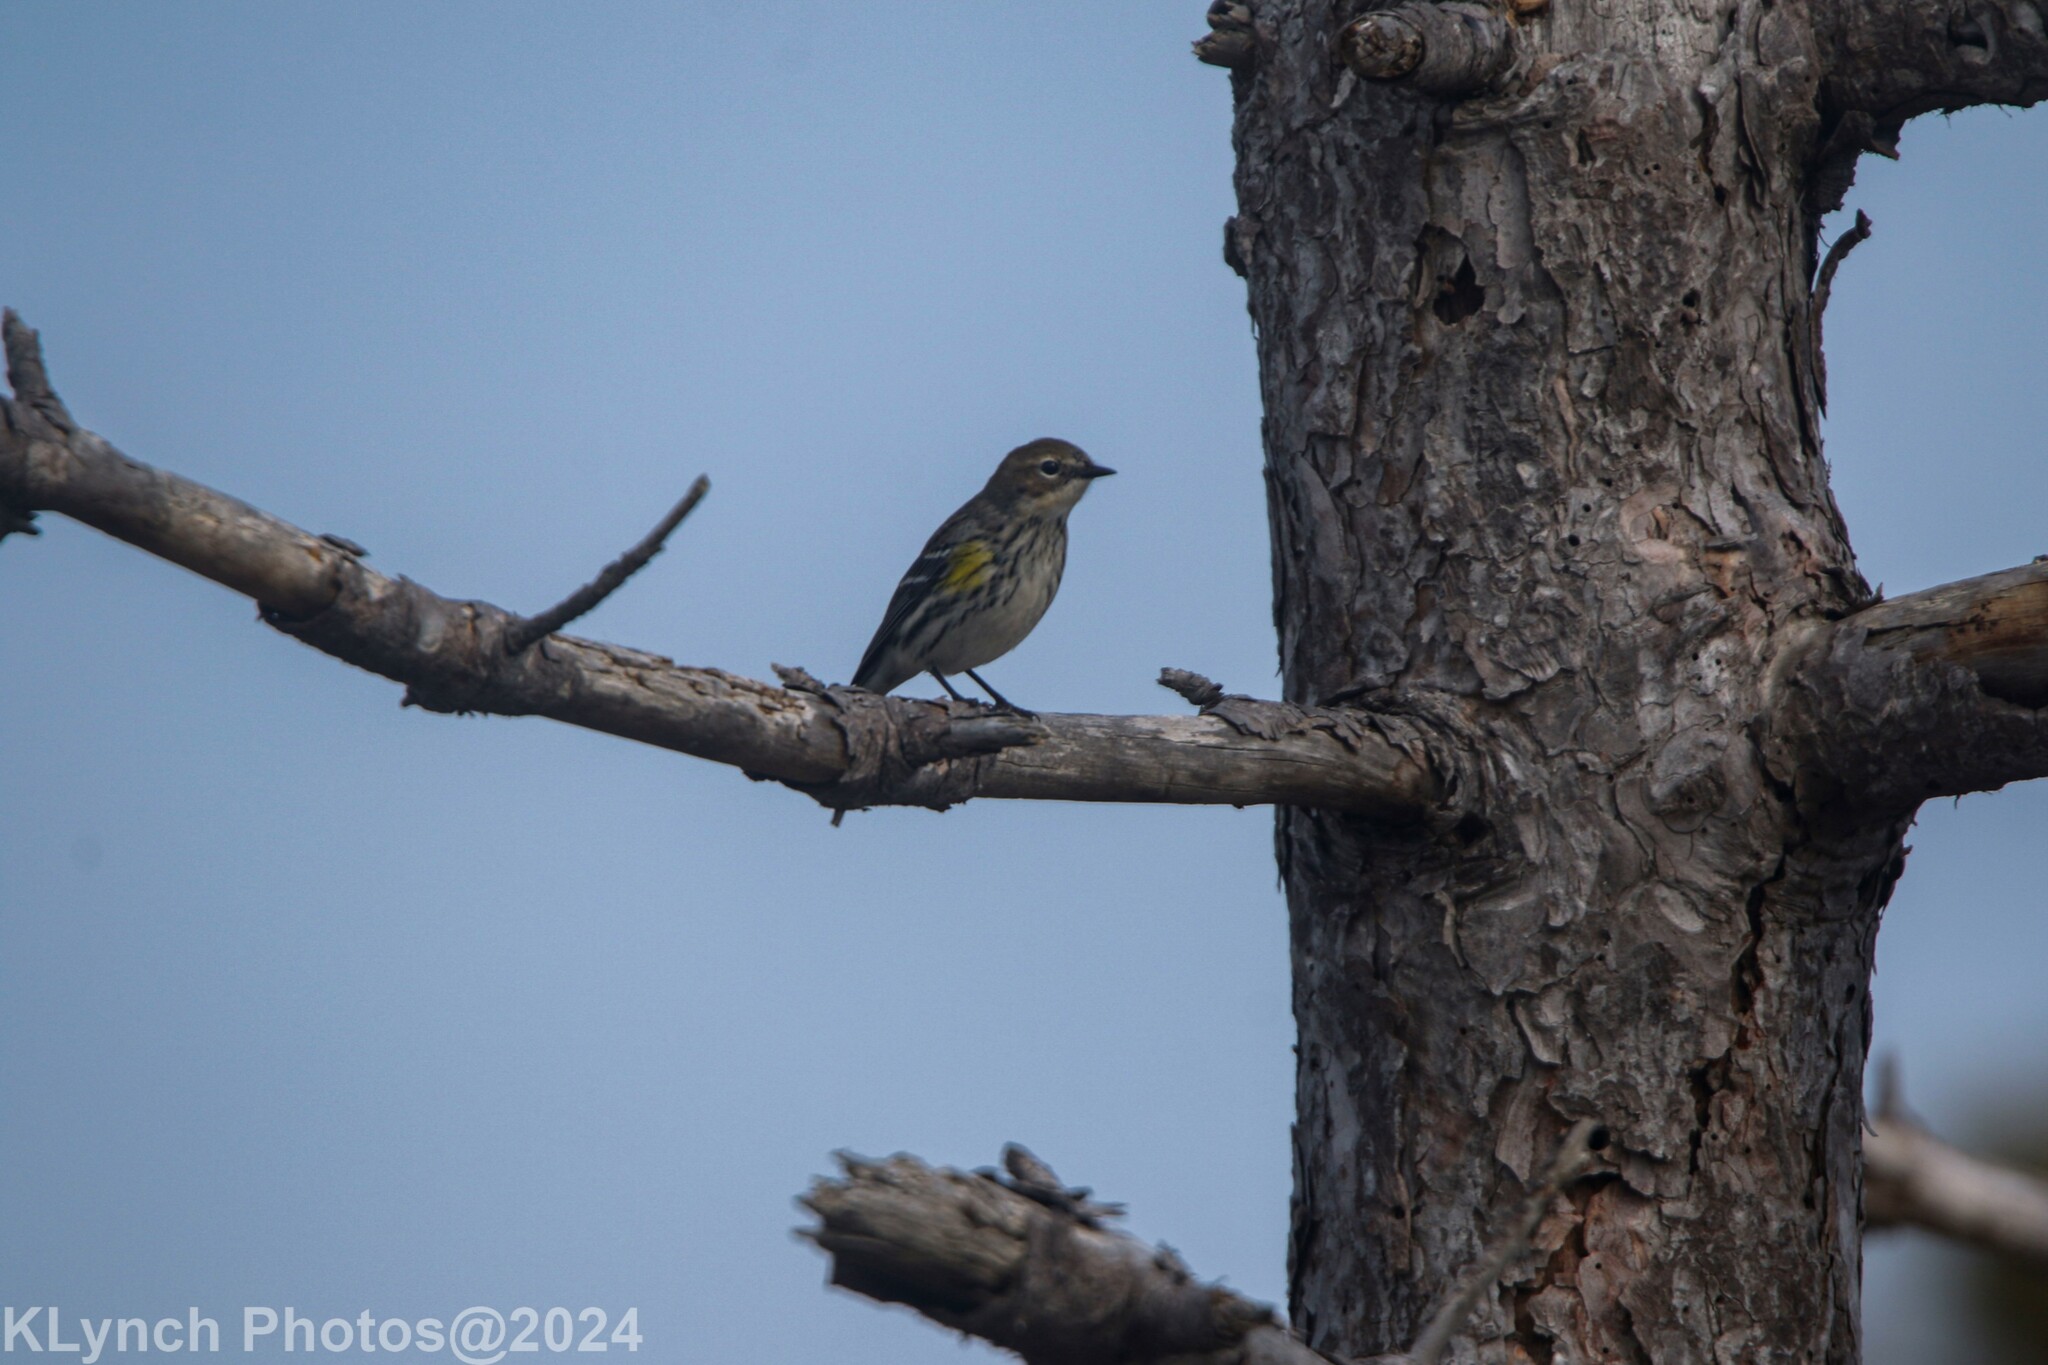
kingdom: Animalia
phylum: Chordata
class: Aves
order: Passeriformes
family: Parulidae
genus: Setophaga
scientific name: Setophaga coronata
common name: Myrtle warbler
